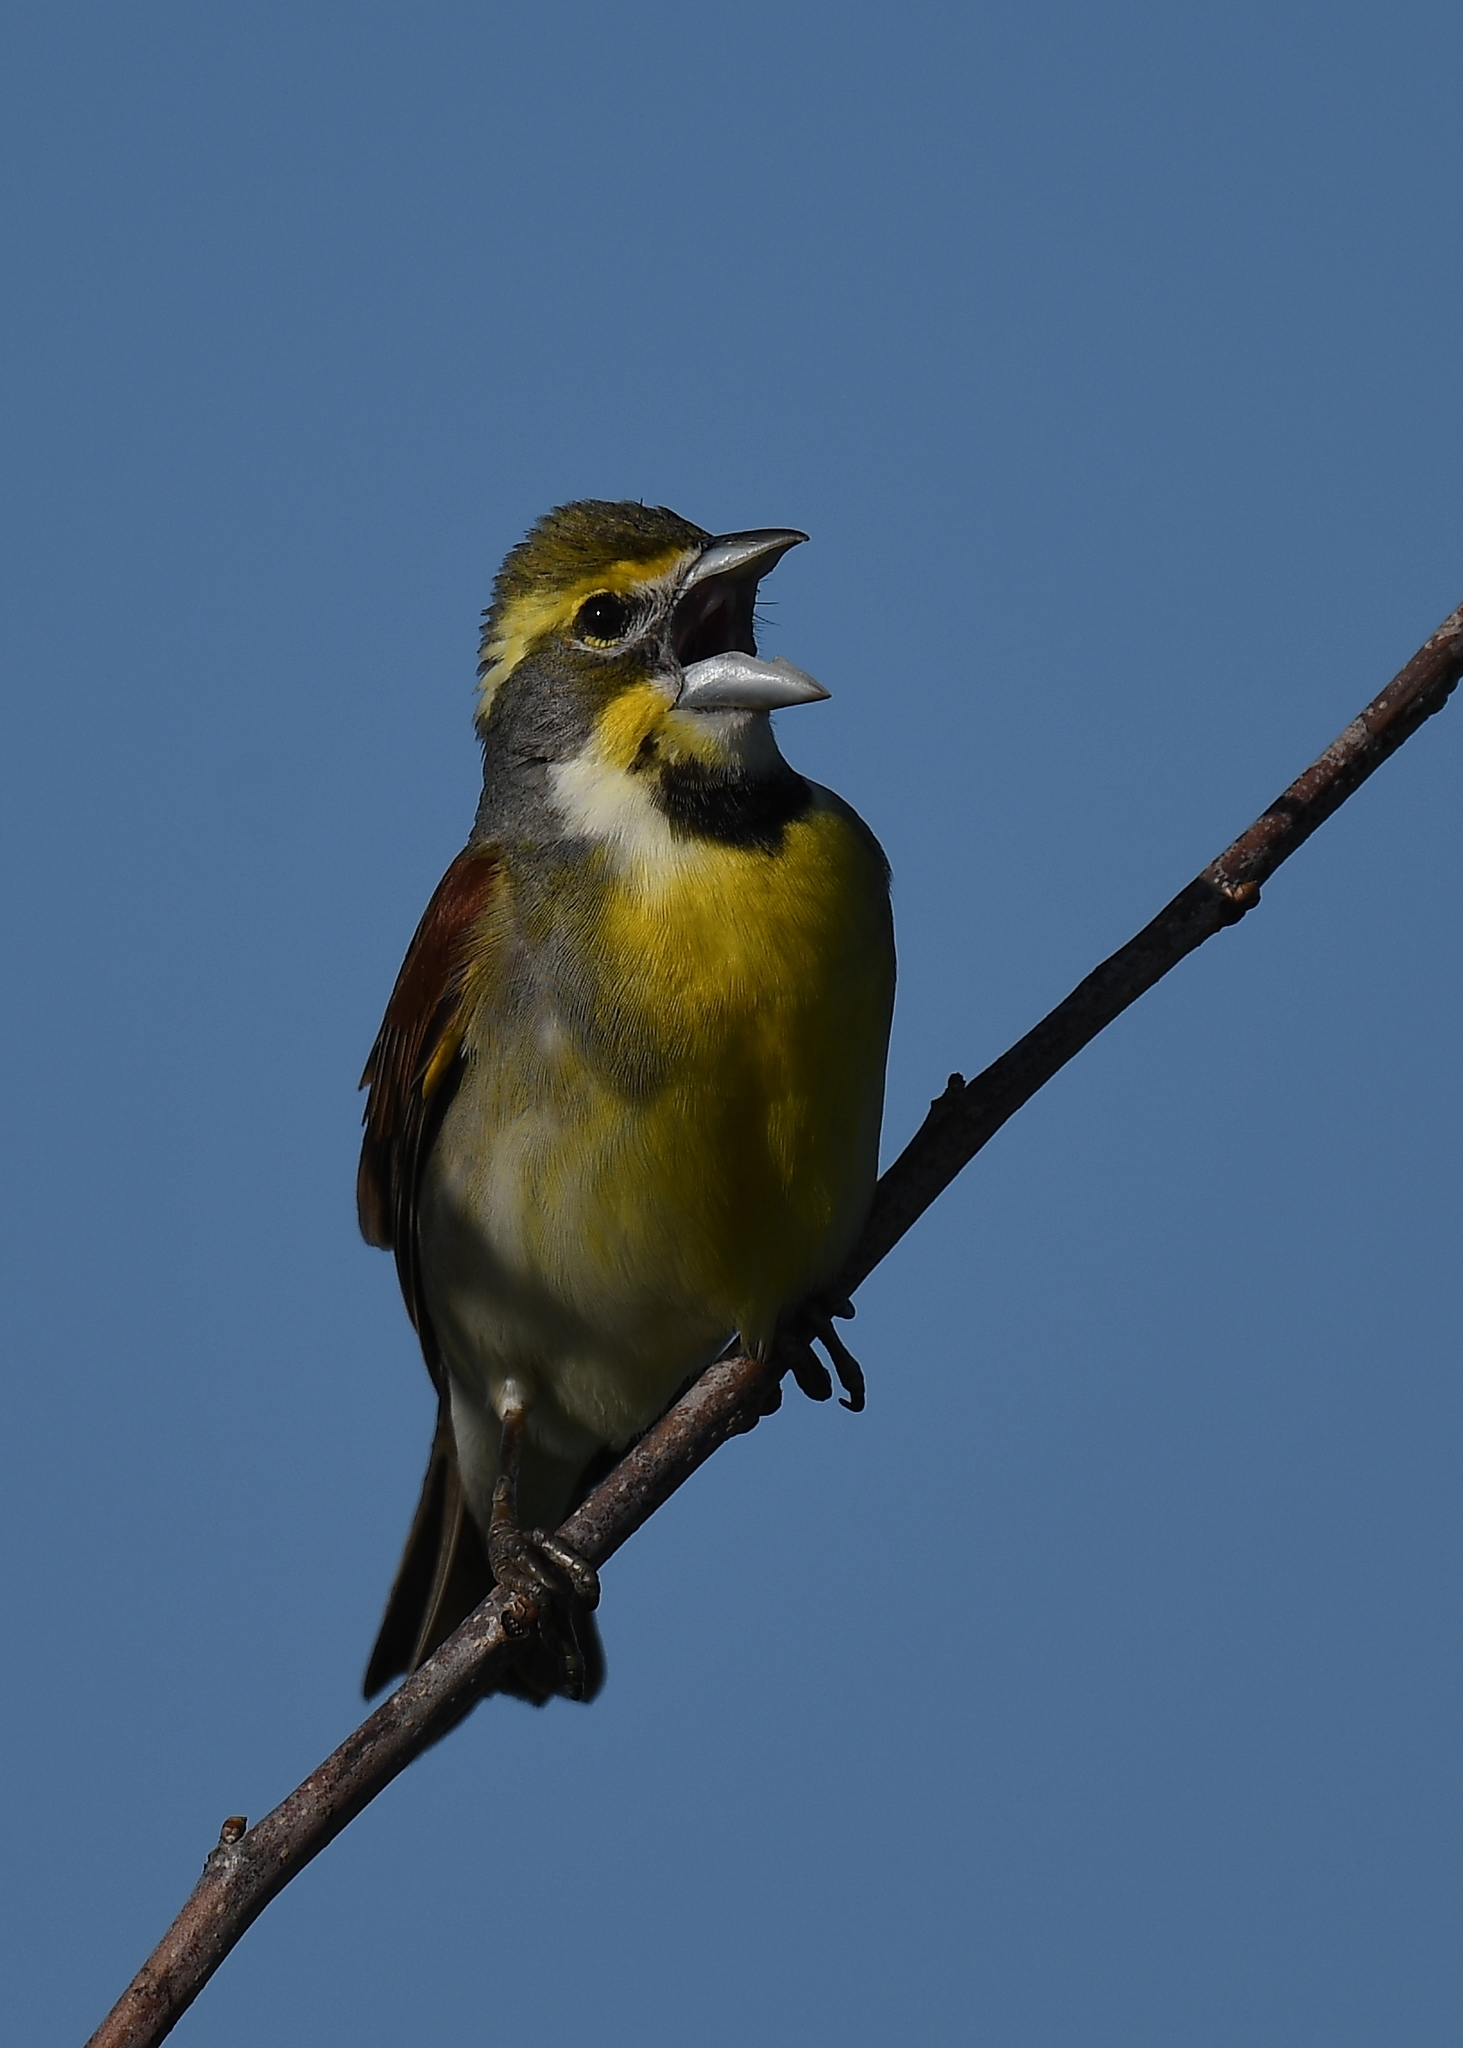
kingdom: Animalia
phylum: Chordata
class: Aves
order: Passeriformes
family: Cardinalidae
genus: Spiza
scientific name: Spiza americana
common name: Dickcissel
